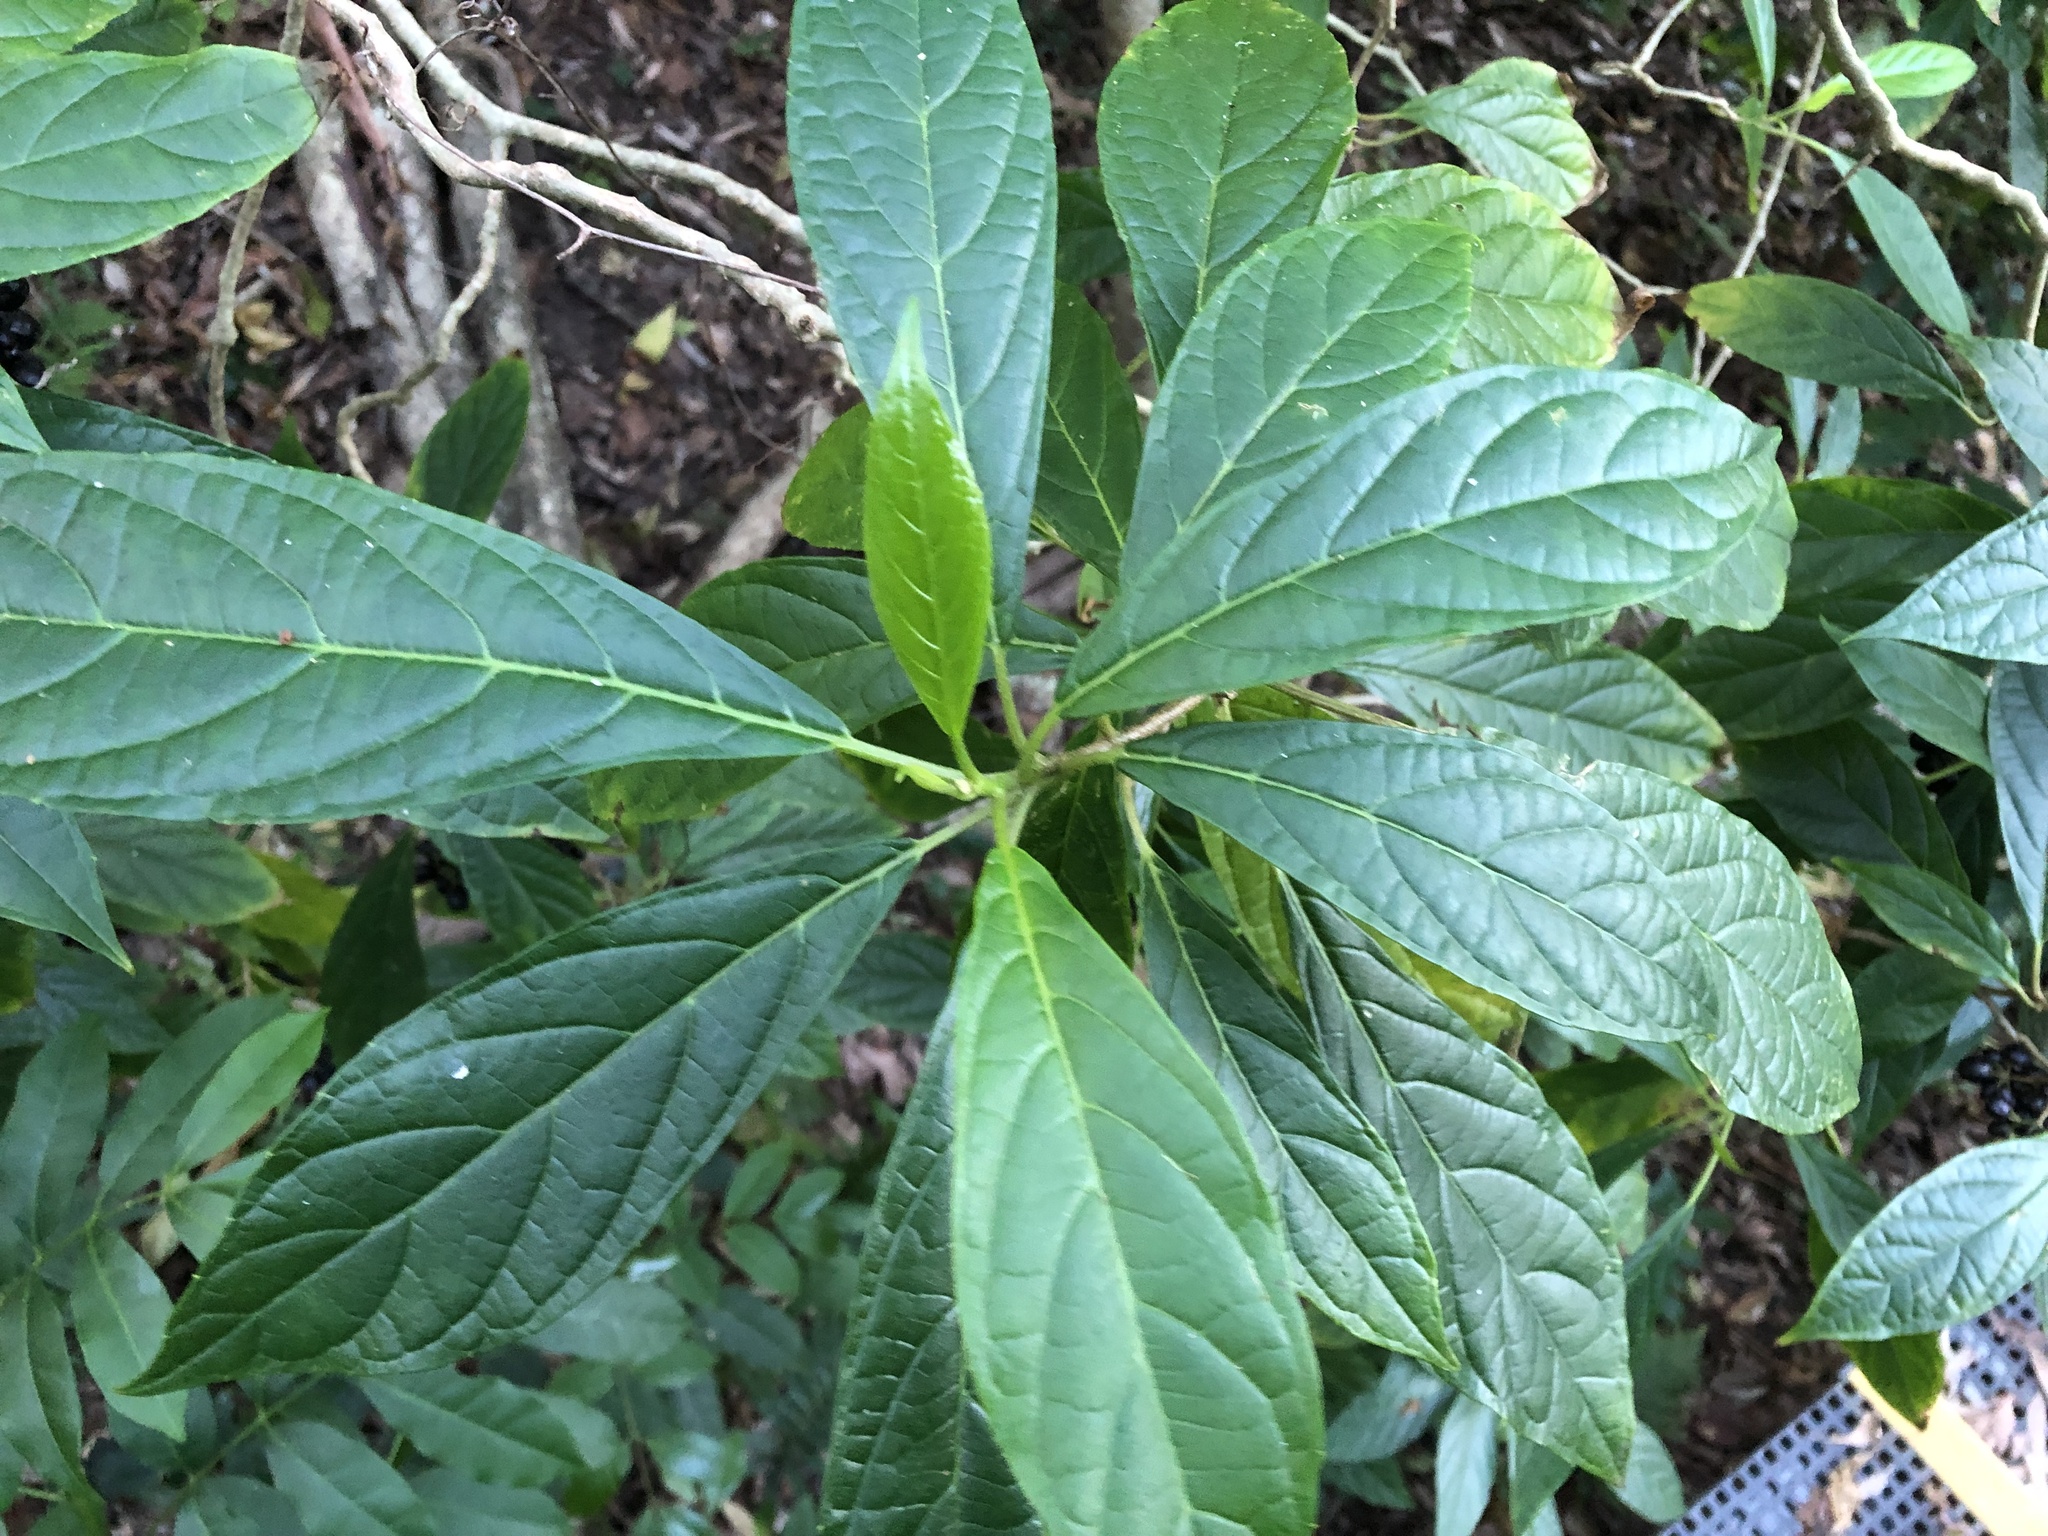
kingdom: Plantae
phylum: Tracheophyta
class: Magnoliopsida
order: Asterales
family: Rousseaceae
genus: Abrophyllum
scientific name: Abrophyllum ornans
